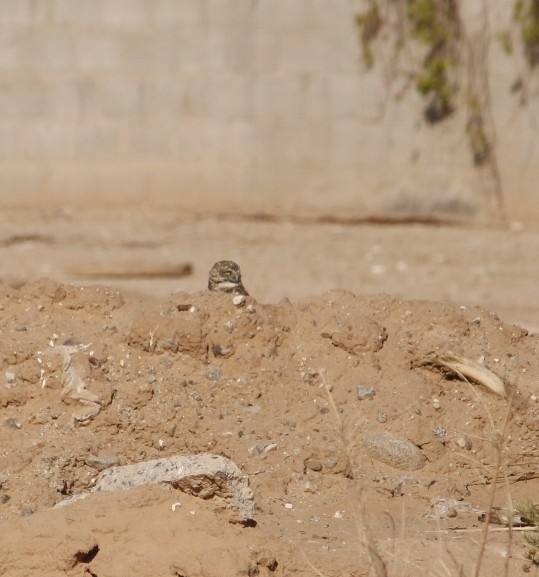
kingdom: Animalia
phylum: Chordata
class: Aves
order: Strigiformes
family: Strigidae
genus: Athene
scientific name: Athene cunicularia
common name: Burrowing owl
